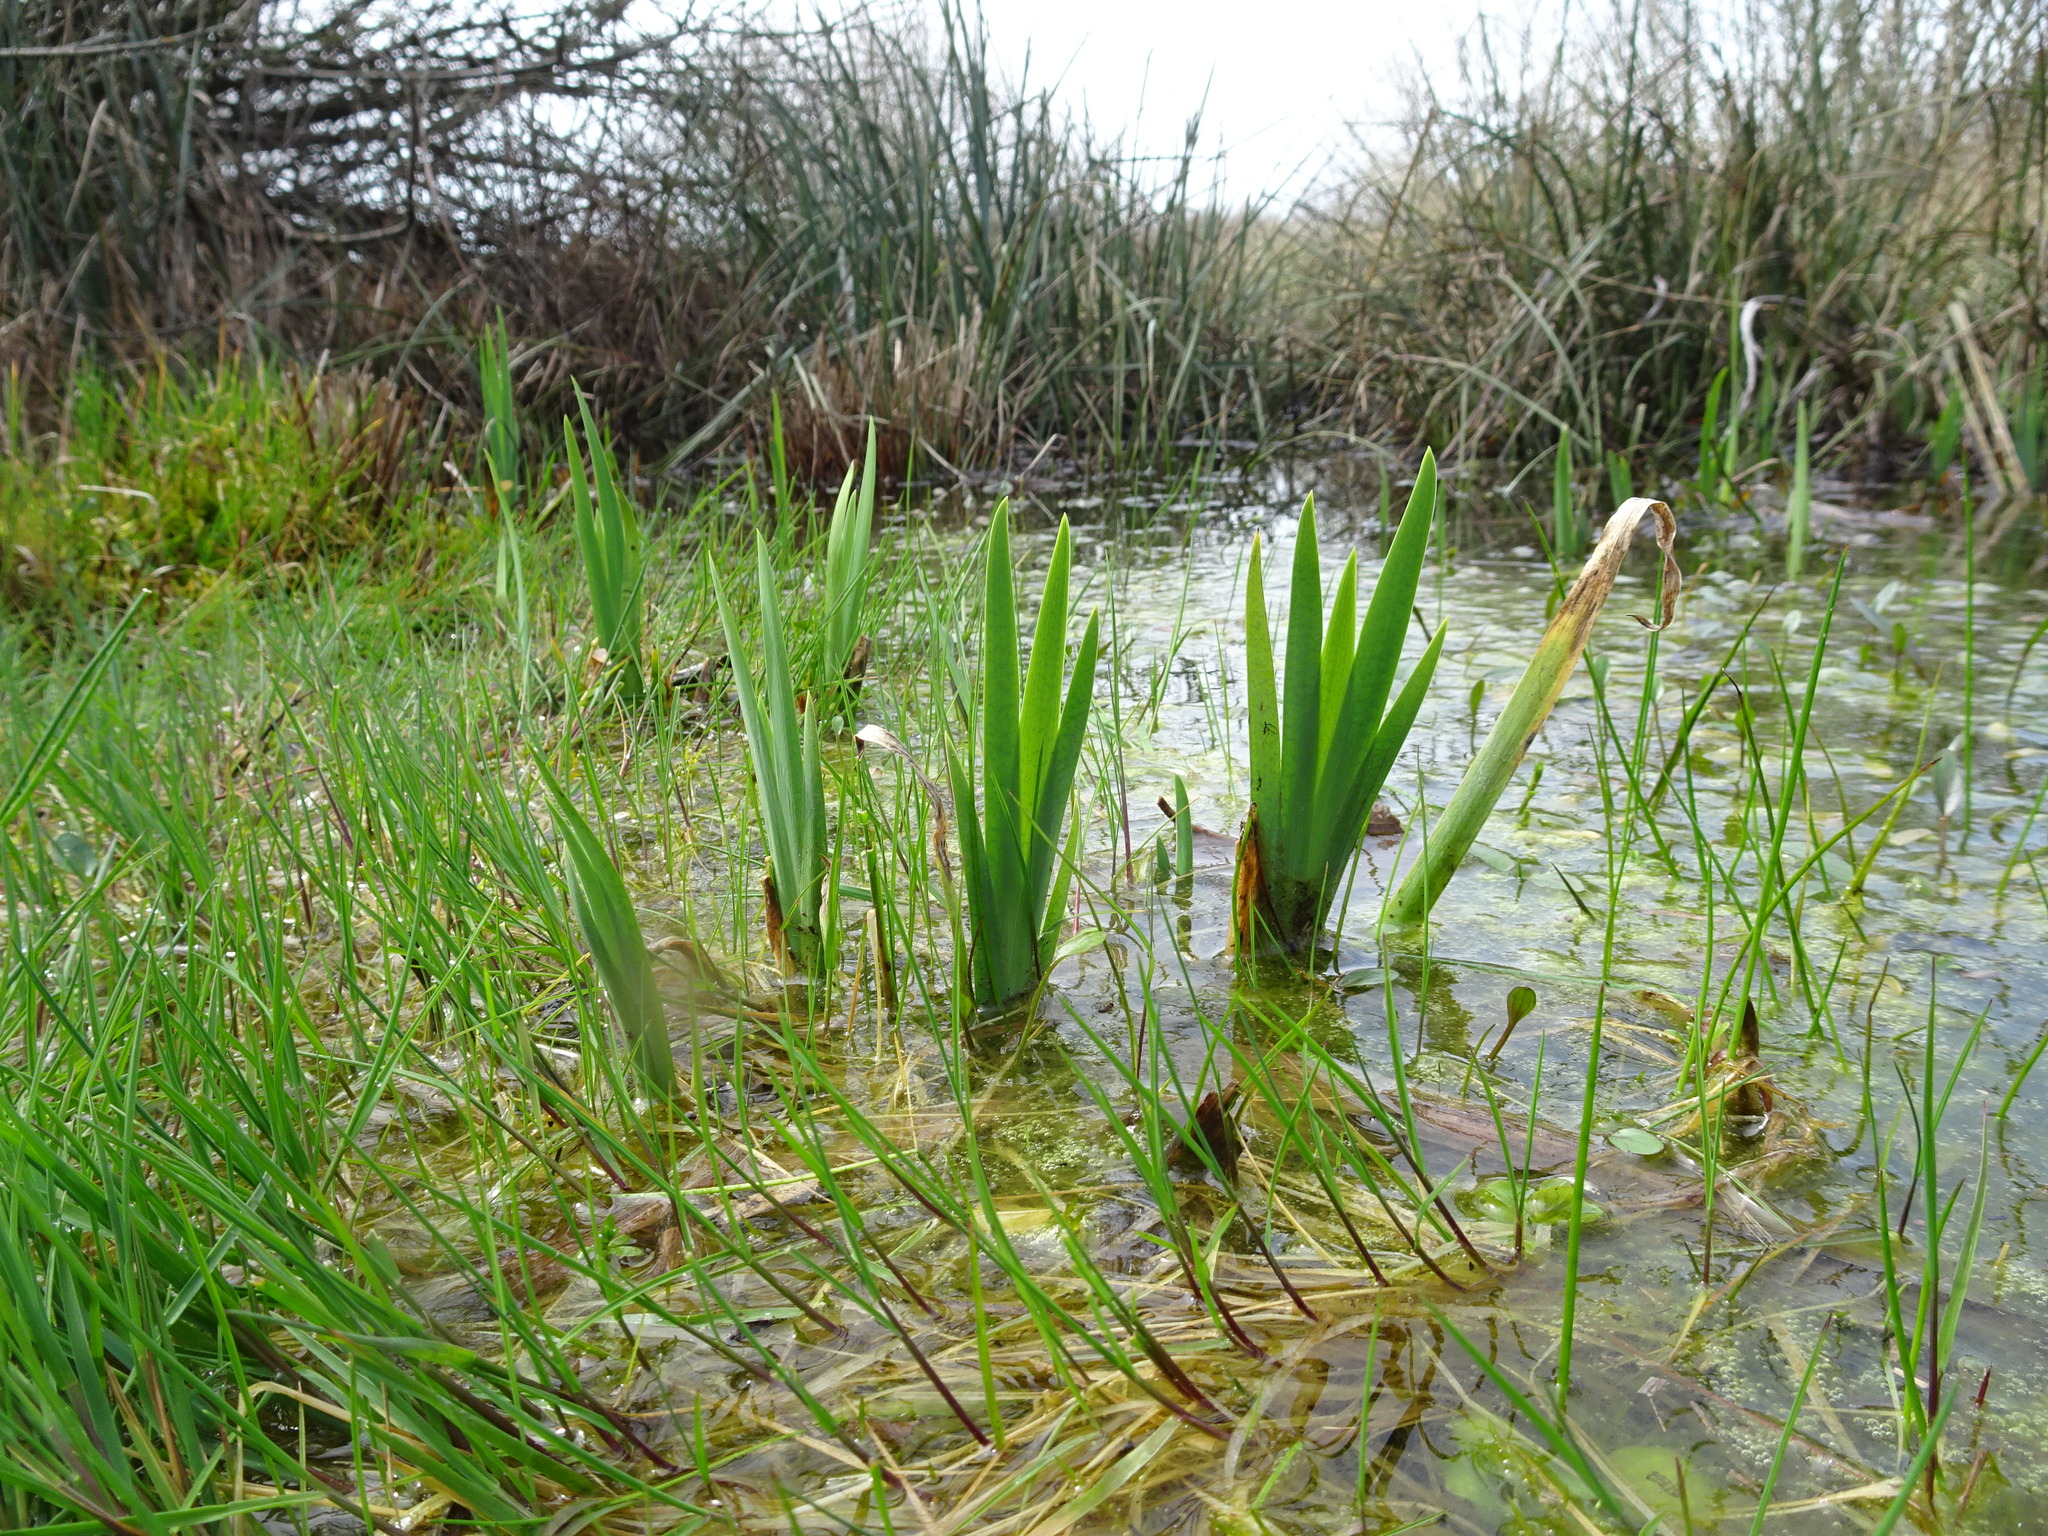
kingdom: Plantae
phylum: Tracheophyta
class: Liliopsida
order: Asparagales
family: Iridaceae
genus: Iris
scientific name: Iris pseudacorus
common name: Yellow flag
